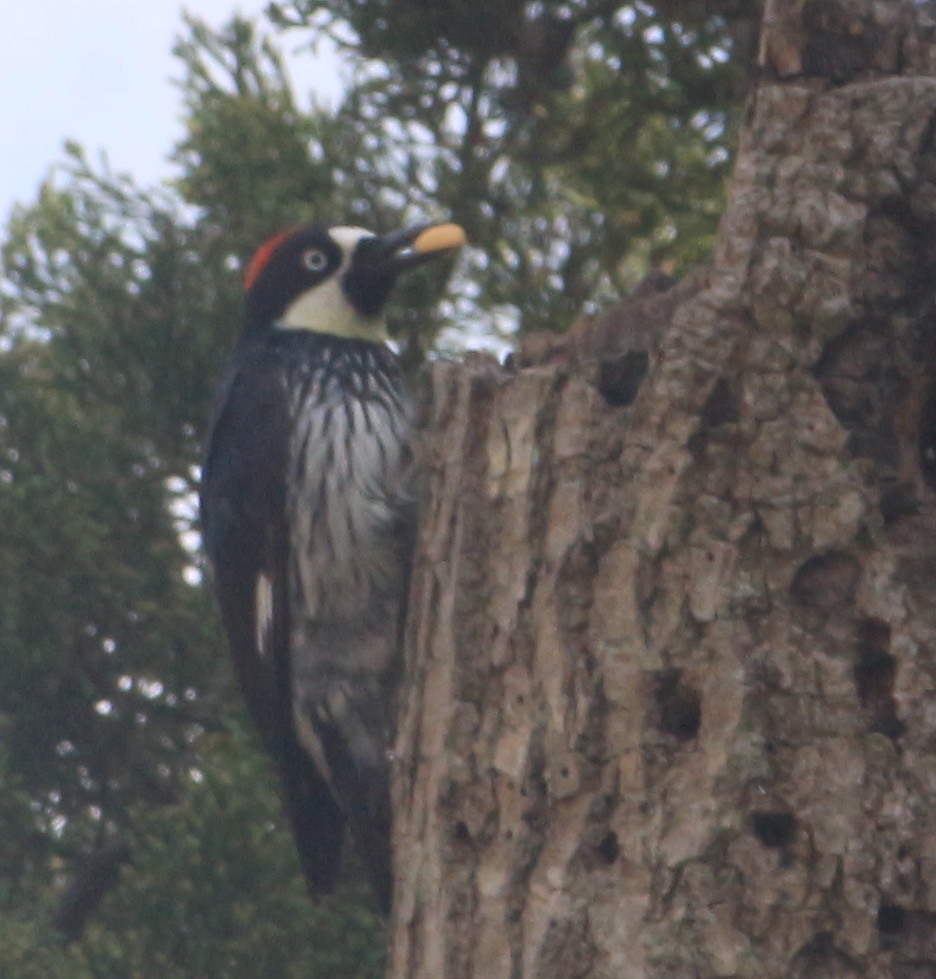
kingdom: Animalia
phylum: Chordata
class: Aves
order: Piciformes
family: Picidae
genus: Melanerpes
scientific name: Melanerpes formicivorus
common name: Acorn woodpecker
